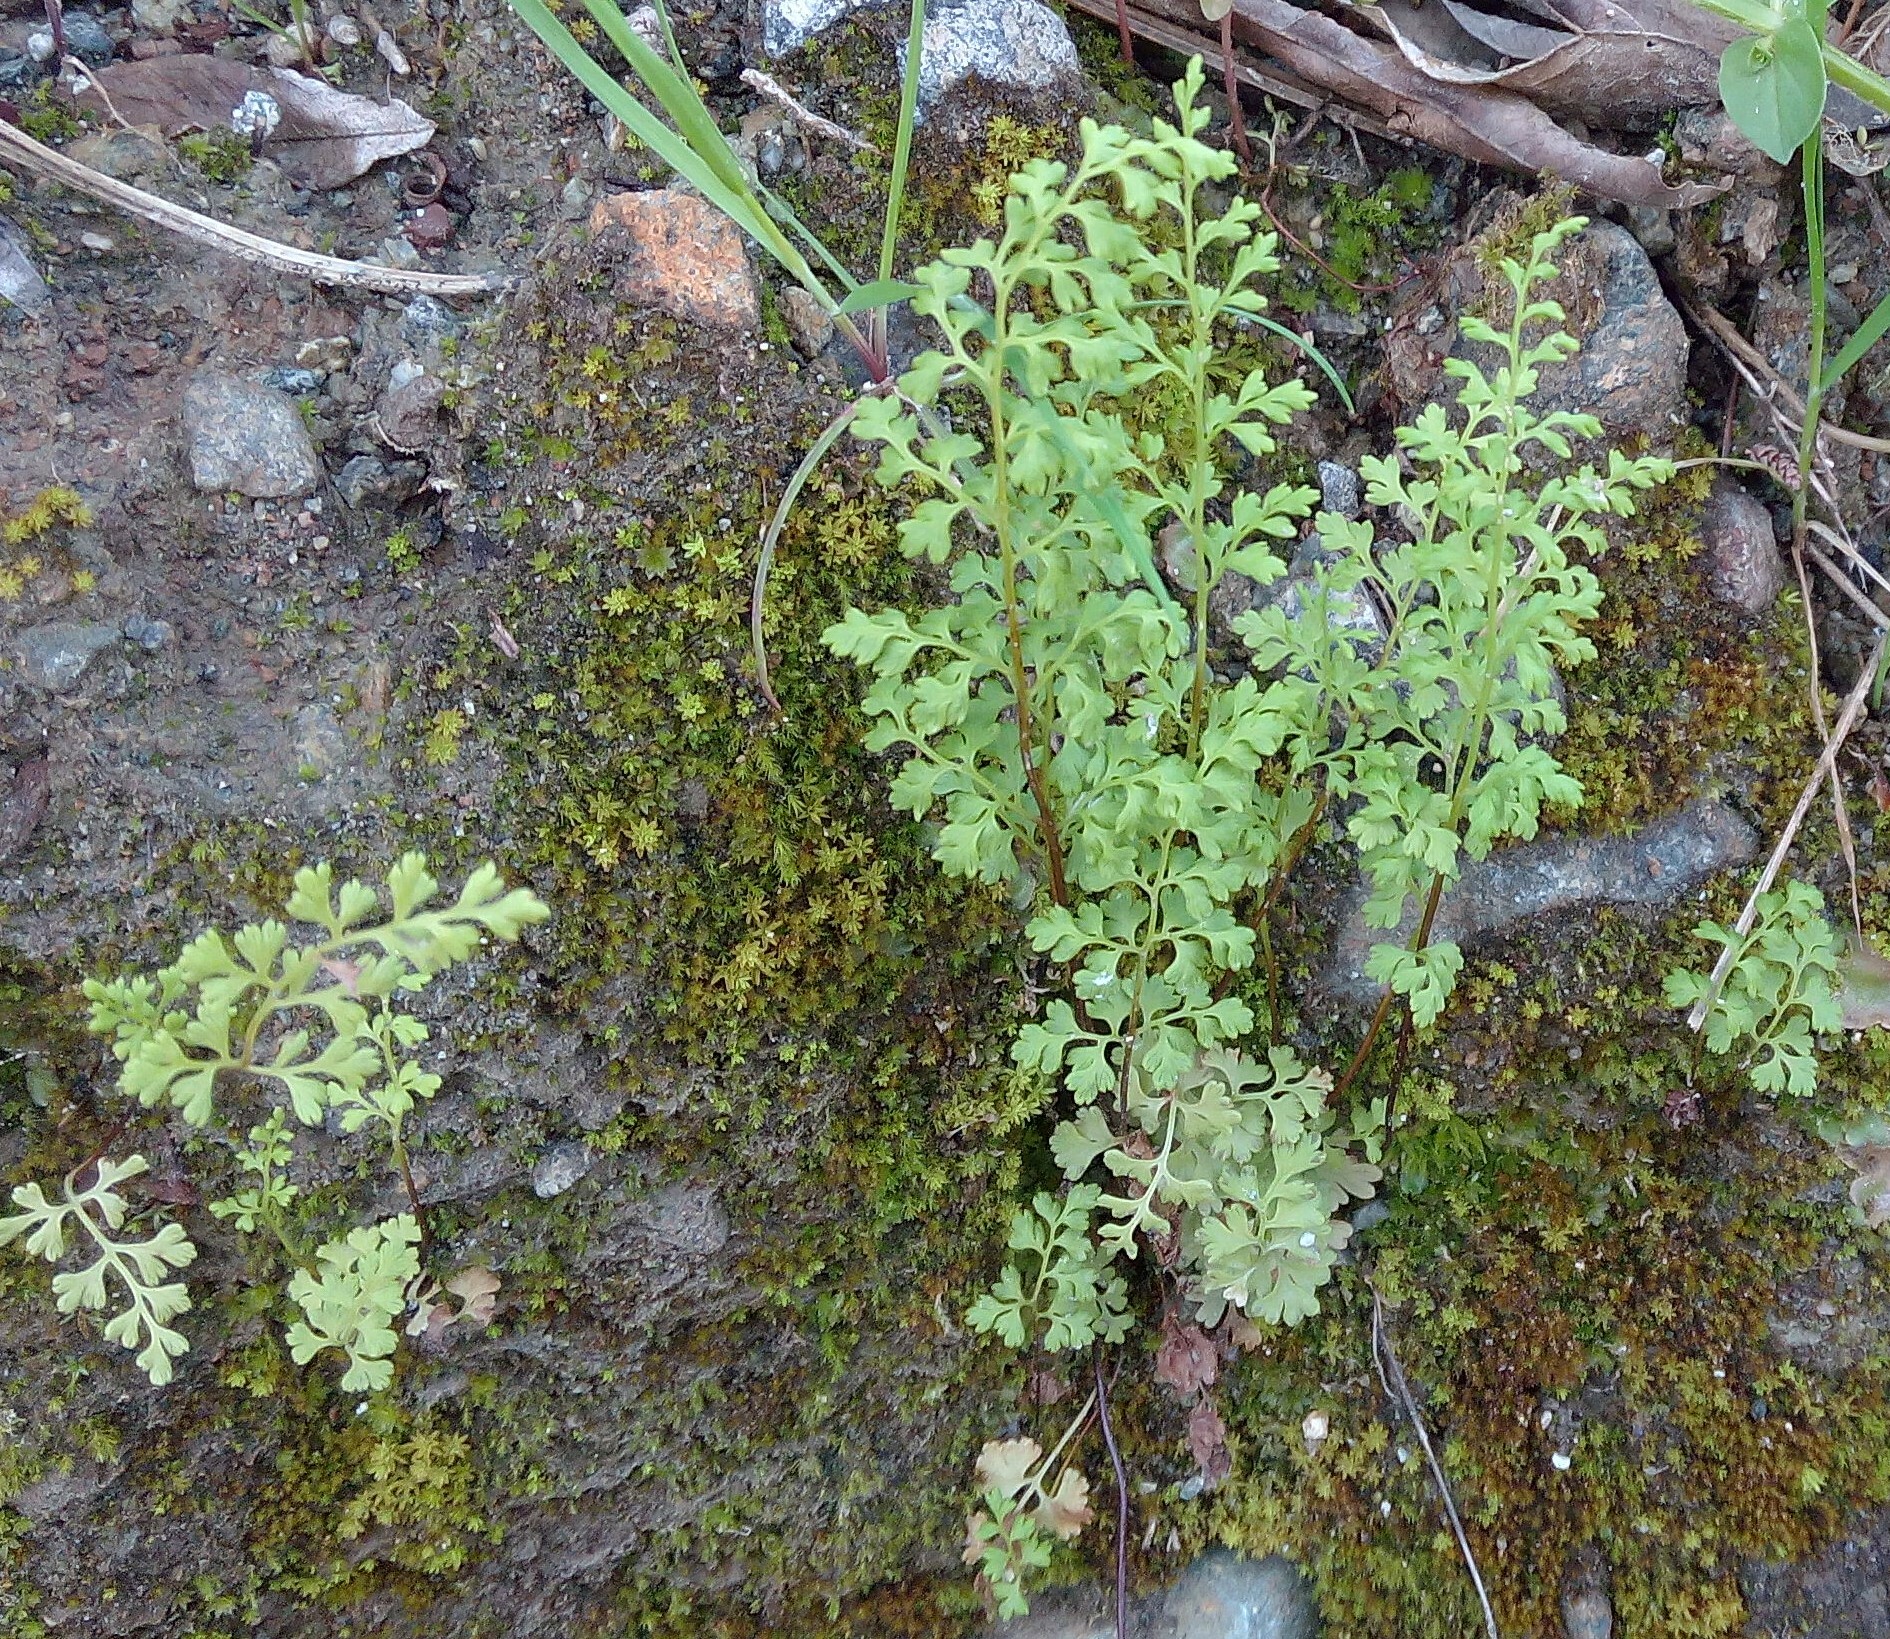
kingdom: Plantae
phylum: Tracheophyta
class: Polypodiopsida
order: Polypodiales
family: Pteridaceae
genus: Anogramma
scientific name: Anogramma leptophylla
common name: Jersey fern
